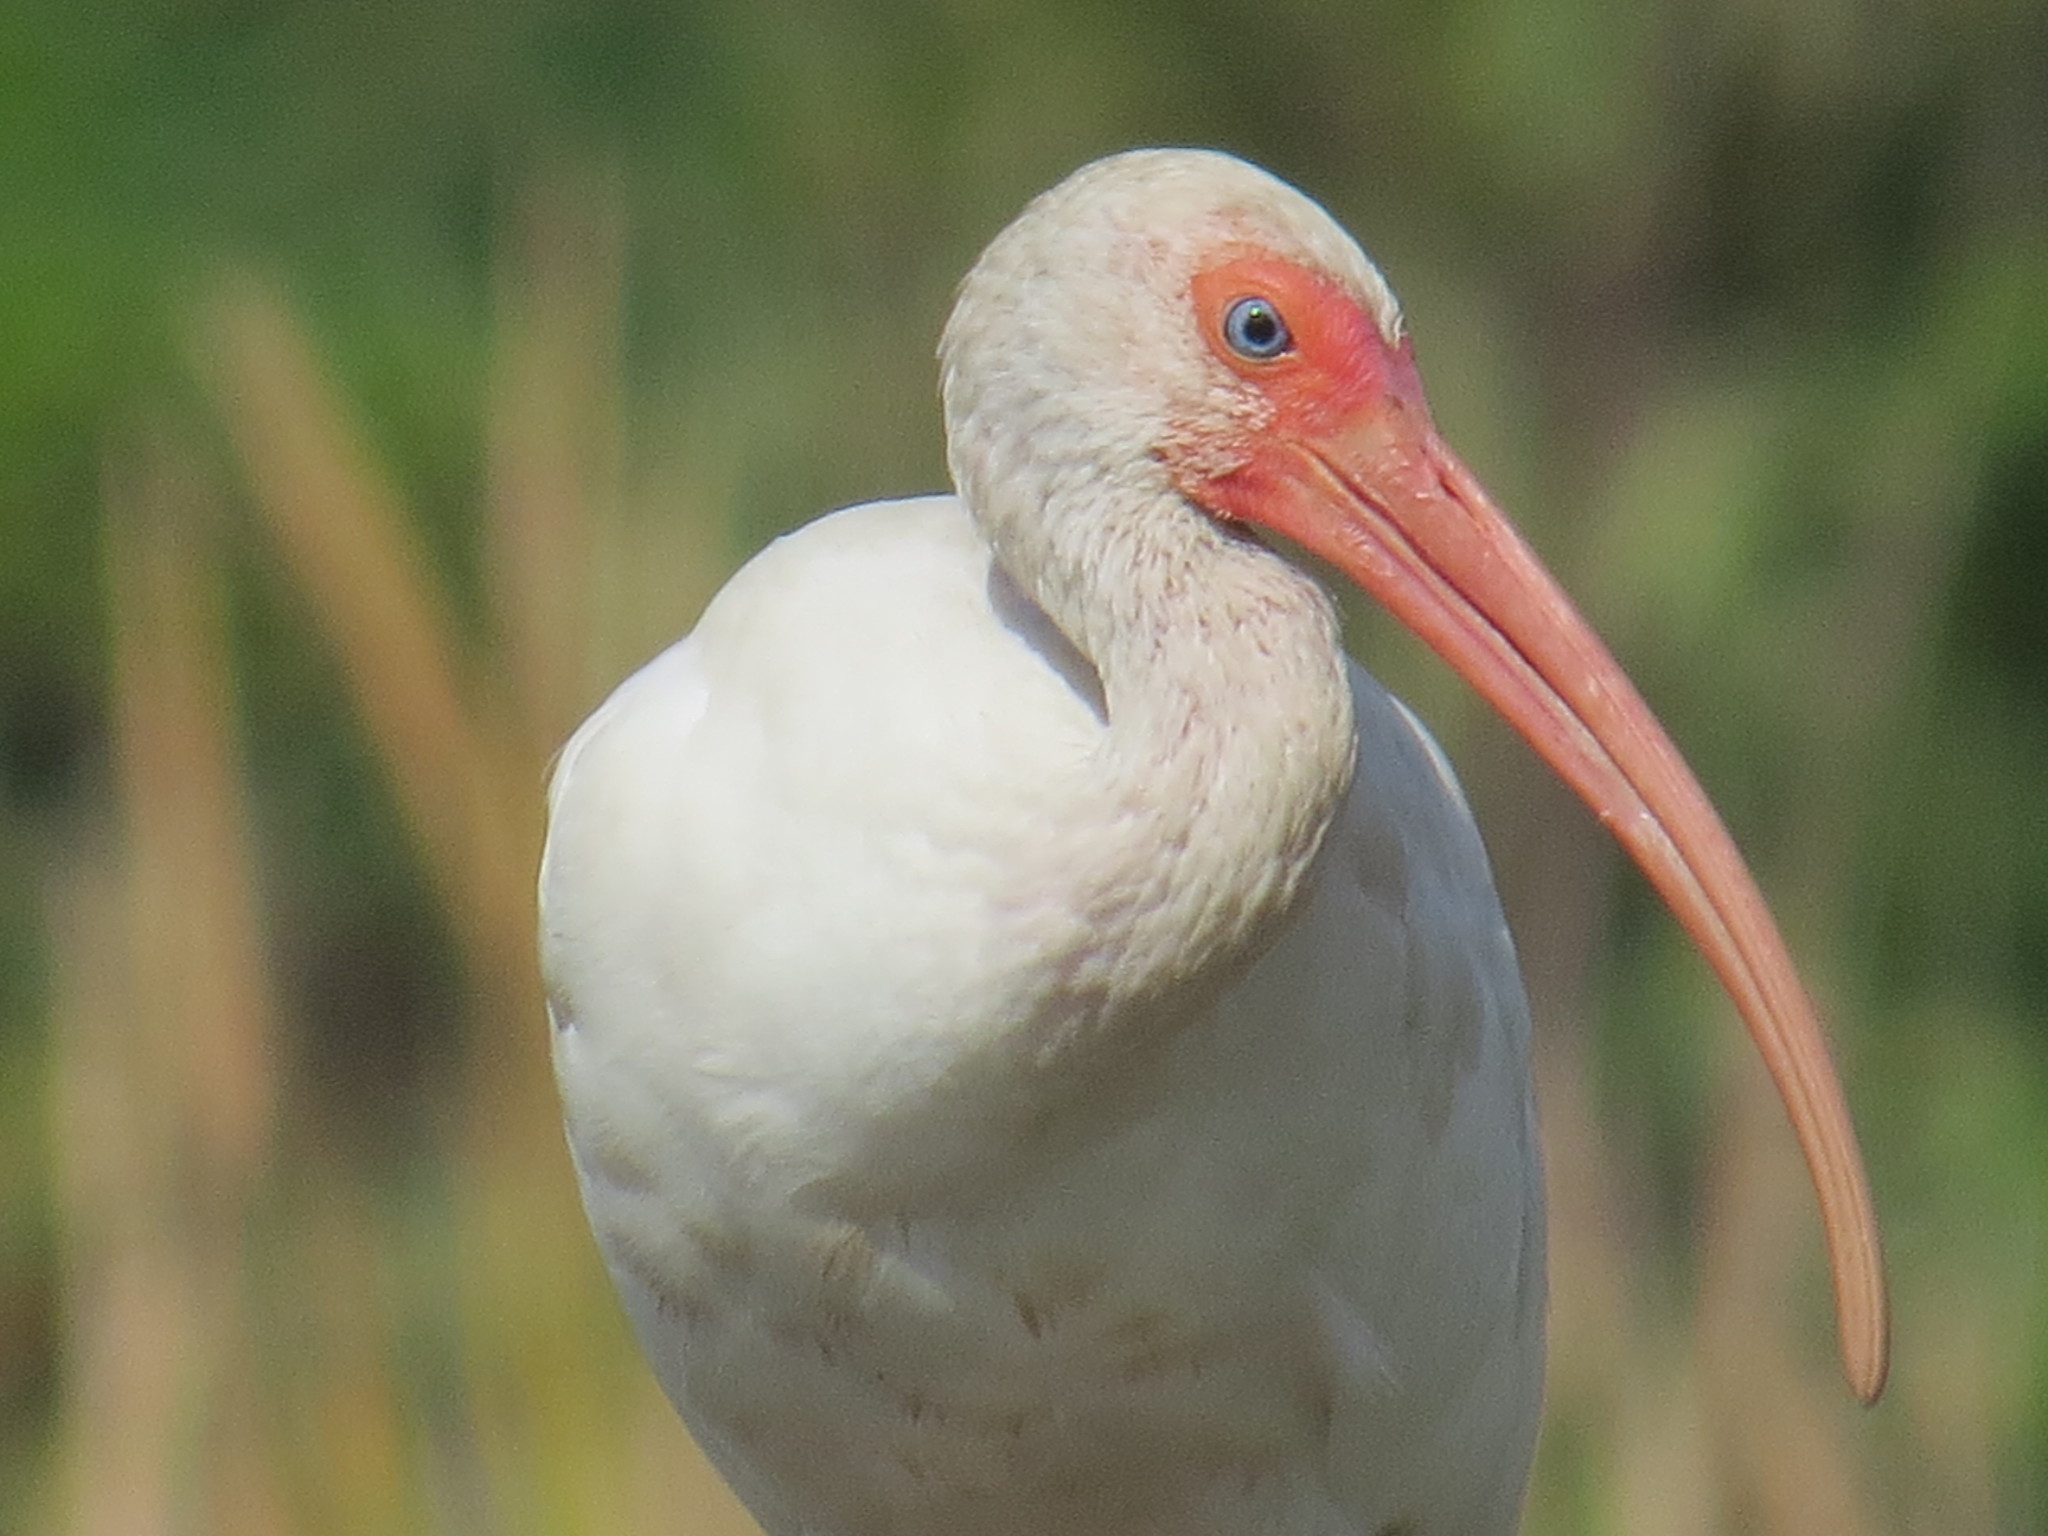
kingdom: Animalia
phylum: Chordata
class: Aves
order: Pelecaniformes
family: Threskiornithidae
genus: Eudocimus
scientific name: Eudocimus albus
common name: White ibis
